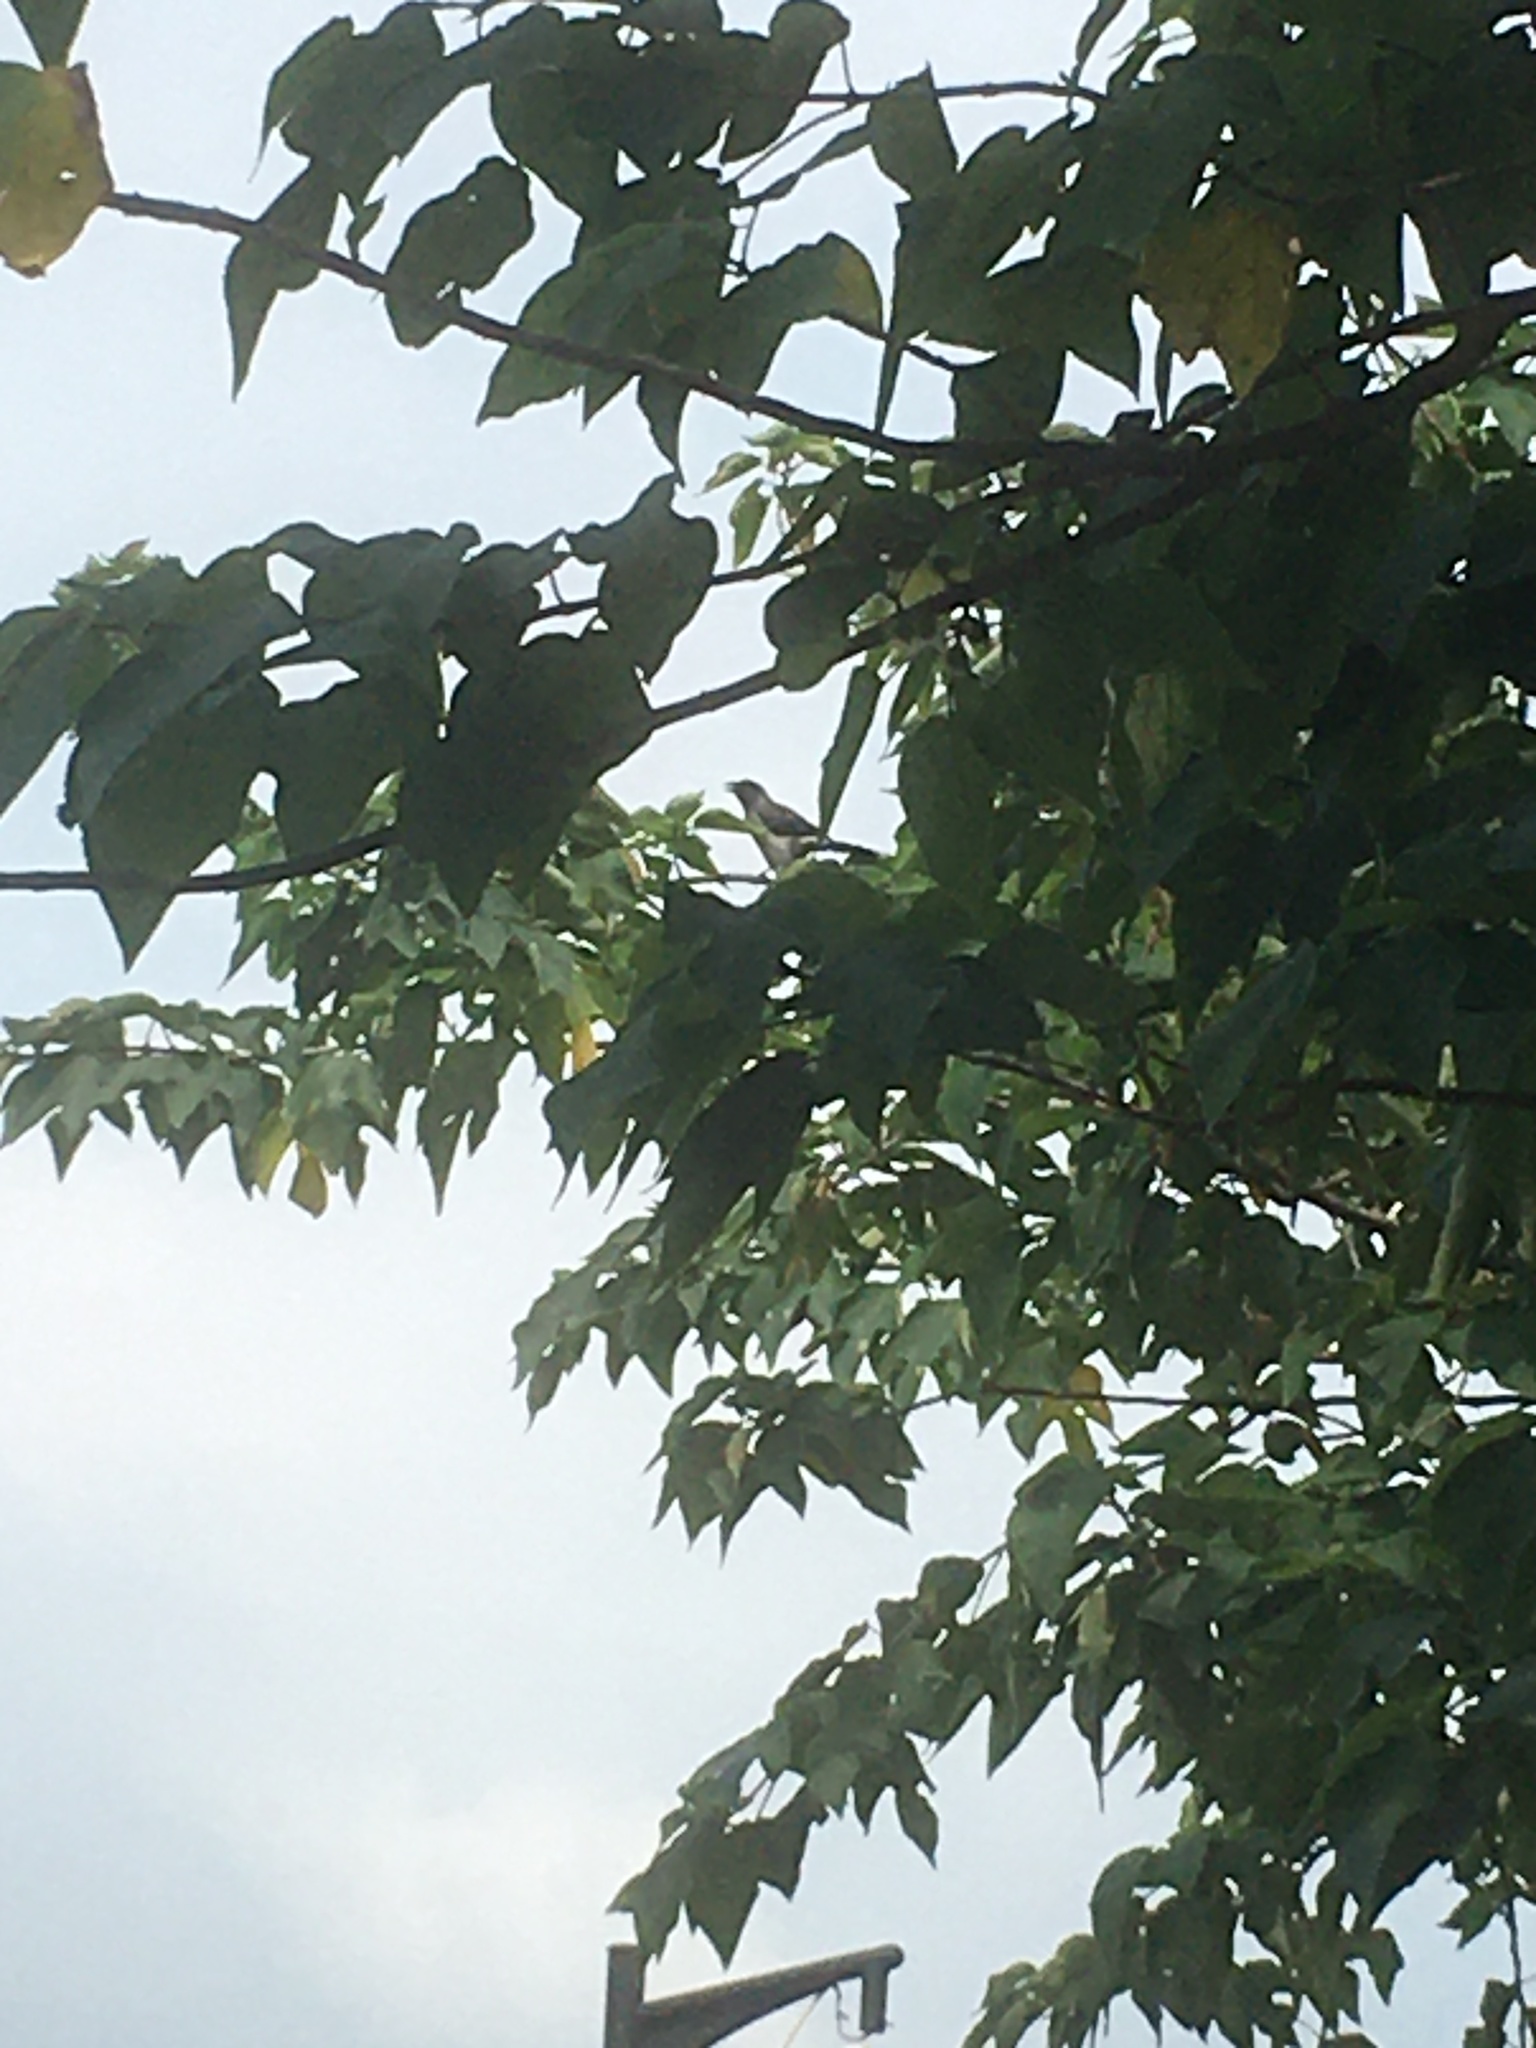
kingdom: Animalia
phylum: Chordata
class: Aves
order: Passeriformes
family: Corvidae
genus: Dendrocitta
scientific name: Dendrocitta formosae
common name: Grey treepie
